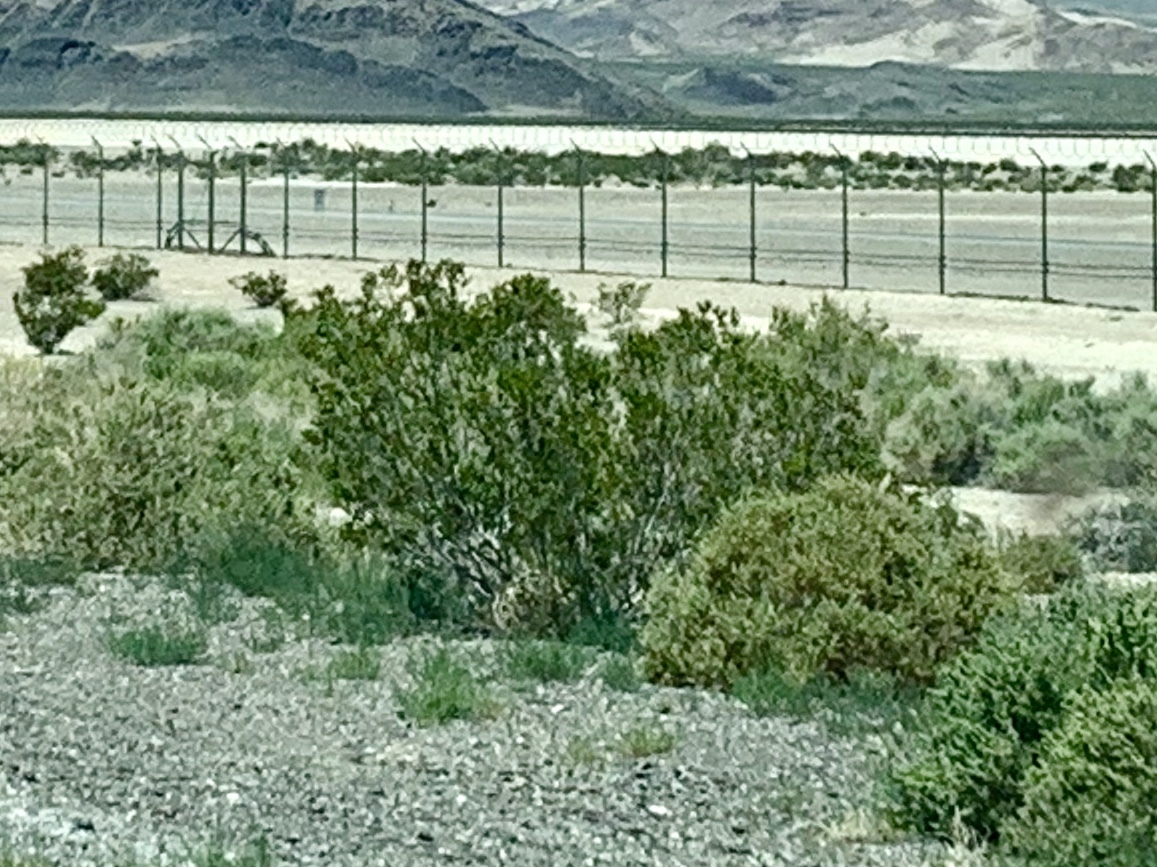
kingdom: Plantae
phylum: Tracheophyta
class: Magnoliopsida
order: Zygophyllales
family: Zygophyllaceae
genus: Larrea
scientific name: Larrea tridentata
